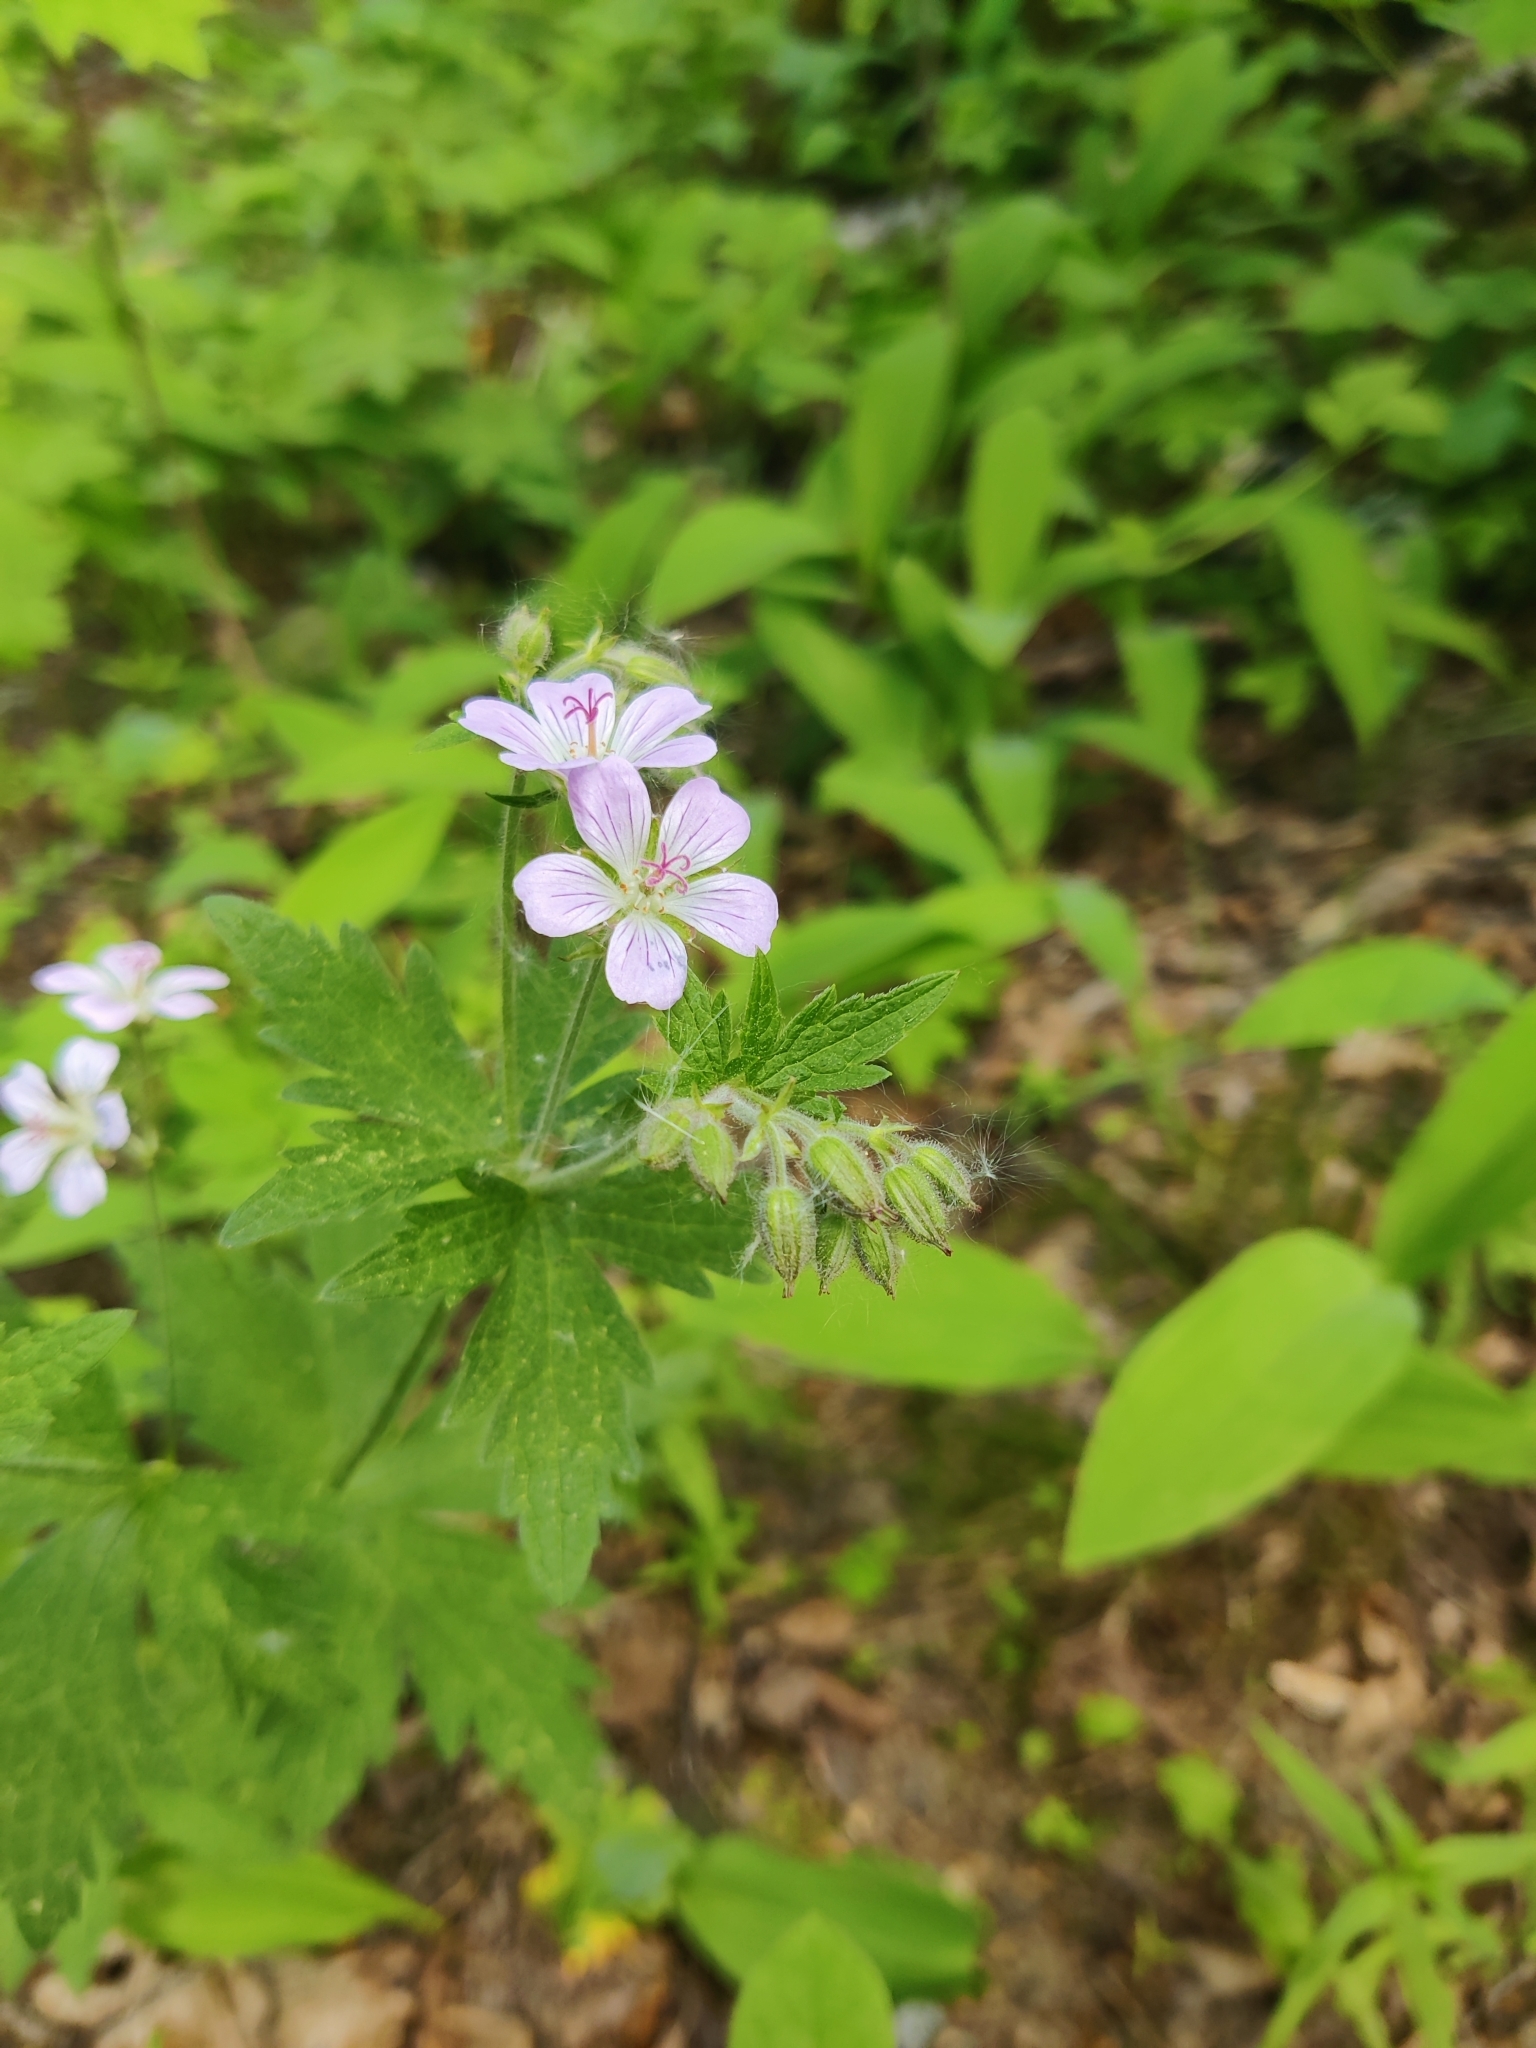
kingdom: Plantae
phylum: Tracheophyta
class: Magnoliopsida
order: Geraniales
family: Geraniaceae
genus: Geranium
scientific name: Geranium sylvaticum
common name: Wood crane's-bill
